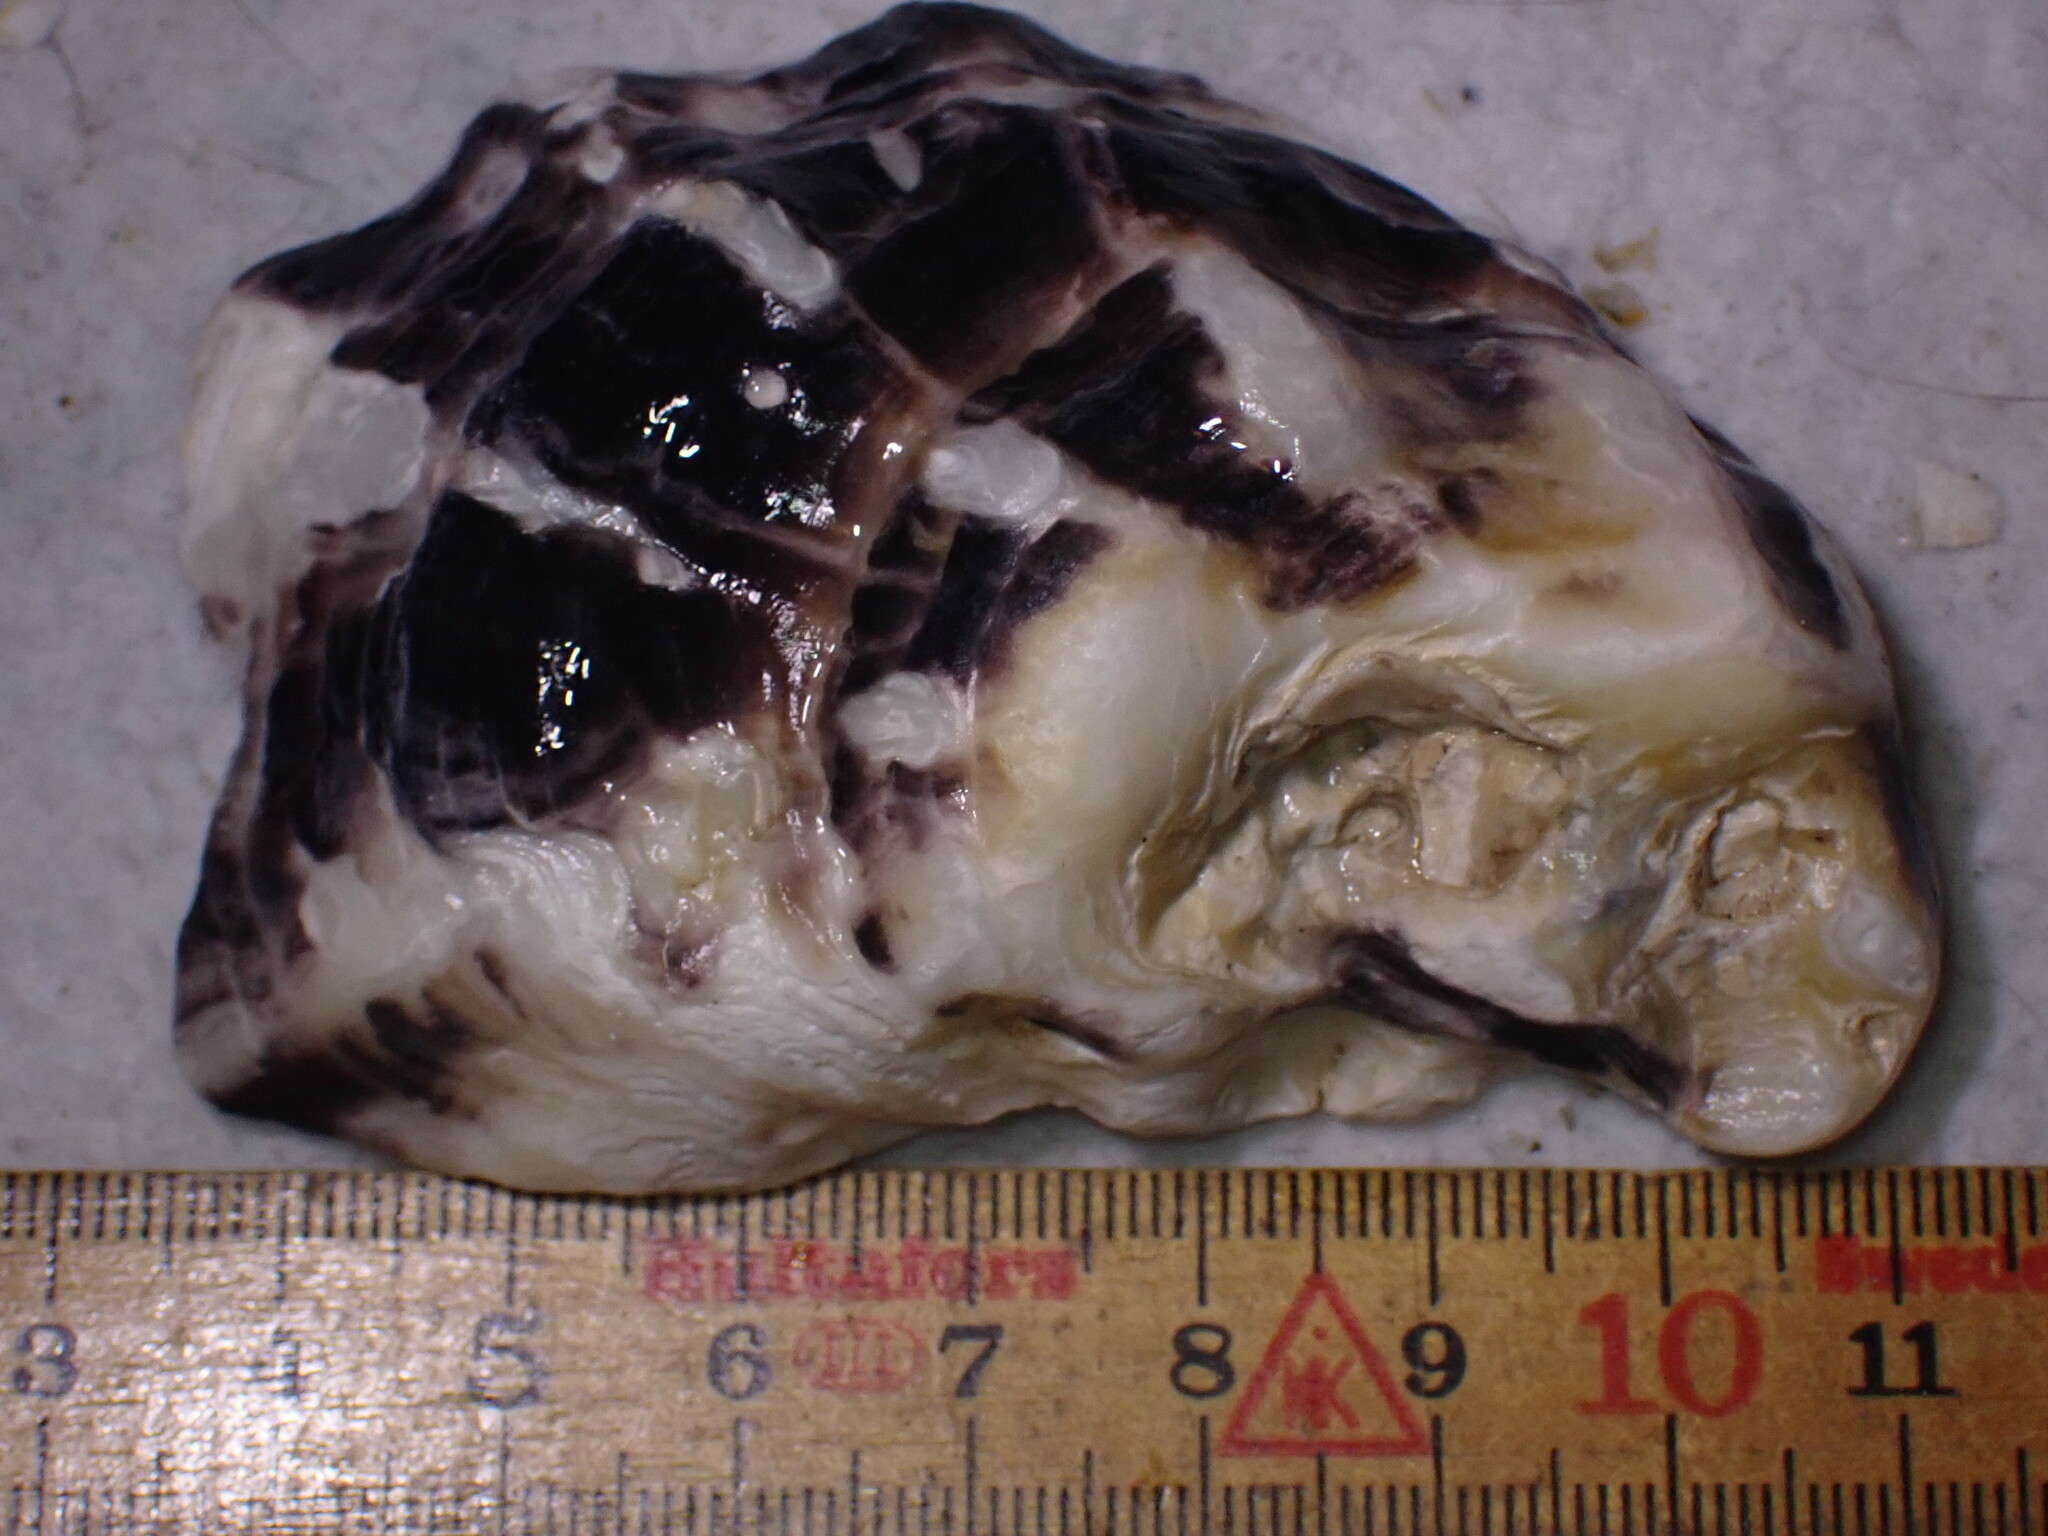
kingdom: Animalia
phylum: Mollusca
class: Bivalvia
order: Ostreida
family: Ostreidae
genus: Magallana
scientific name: Magallana gigas
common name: Pacific oyster
